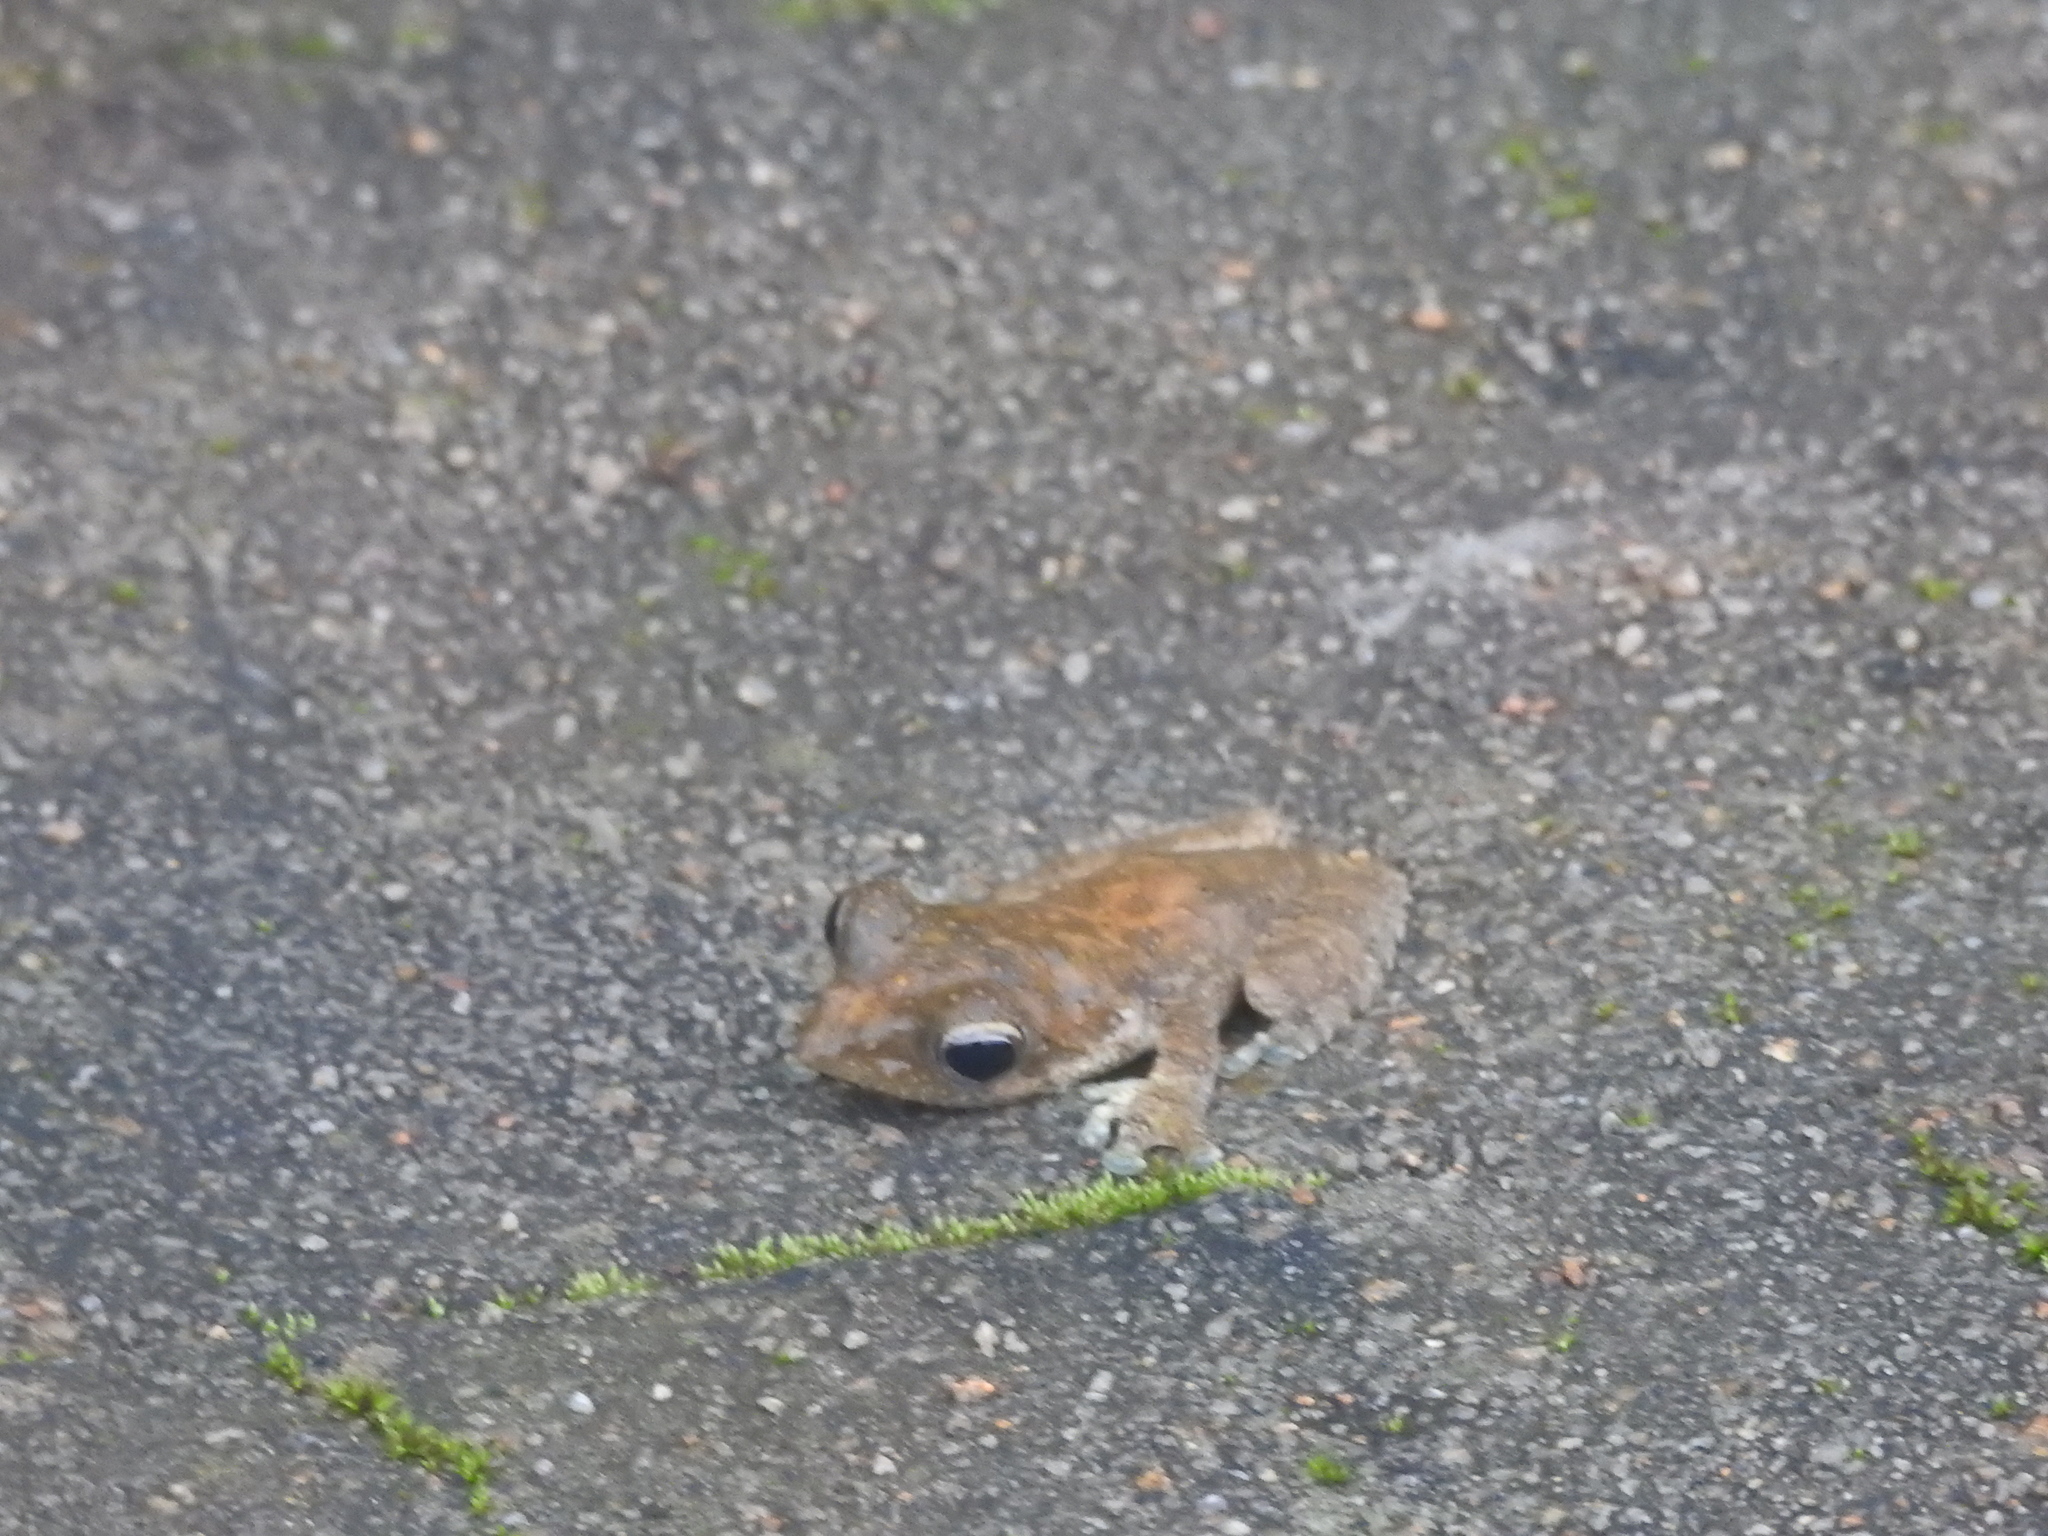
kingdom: Animalia
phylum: Chordata
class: Amphibia
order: Anura
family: Rhacophoridae
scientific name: Rhacophoridae
